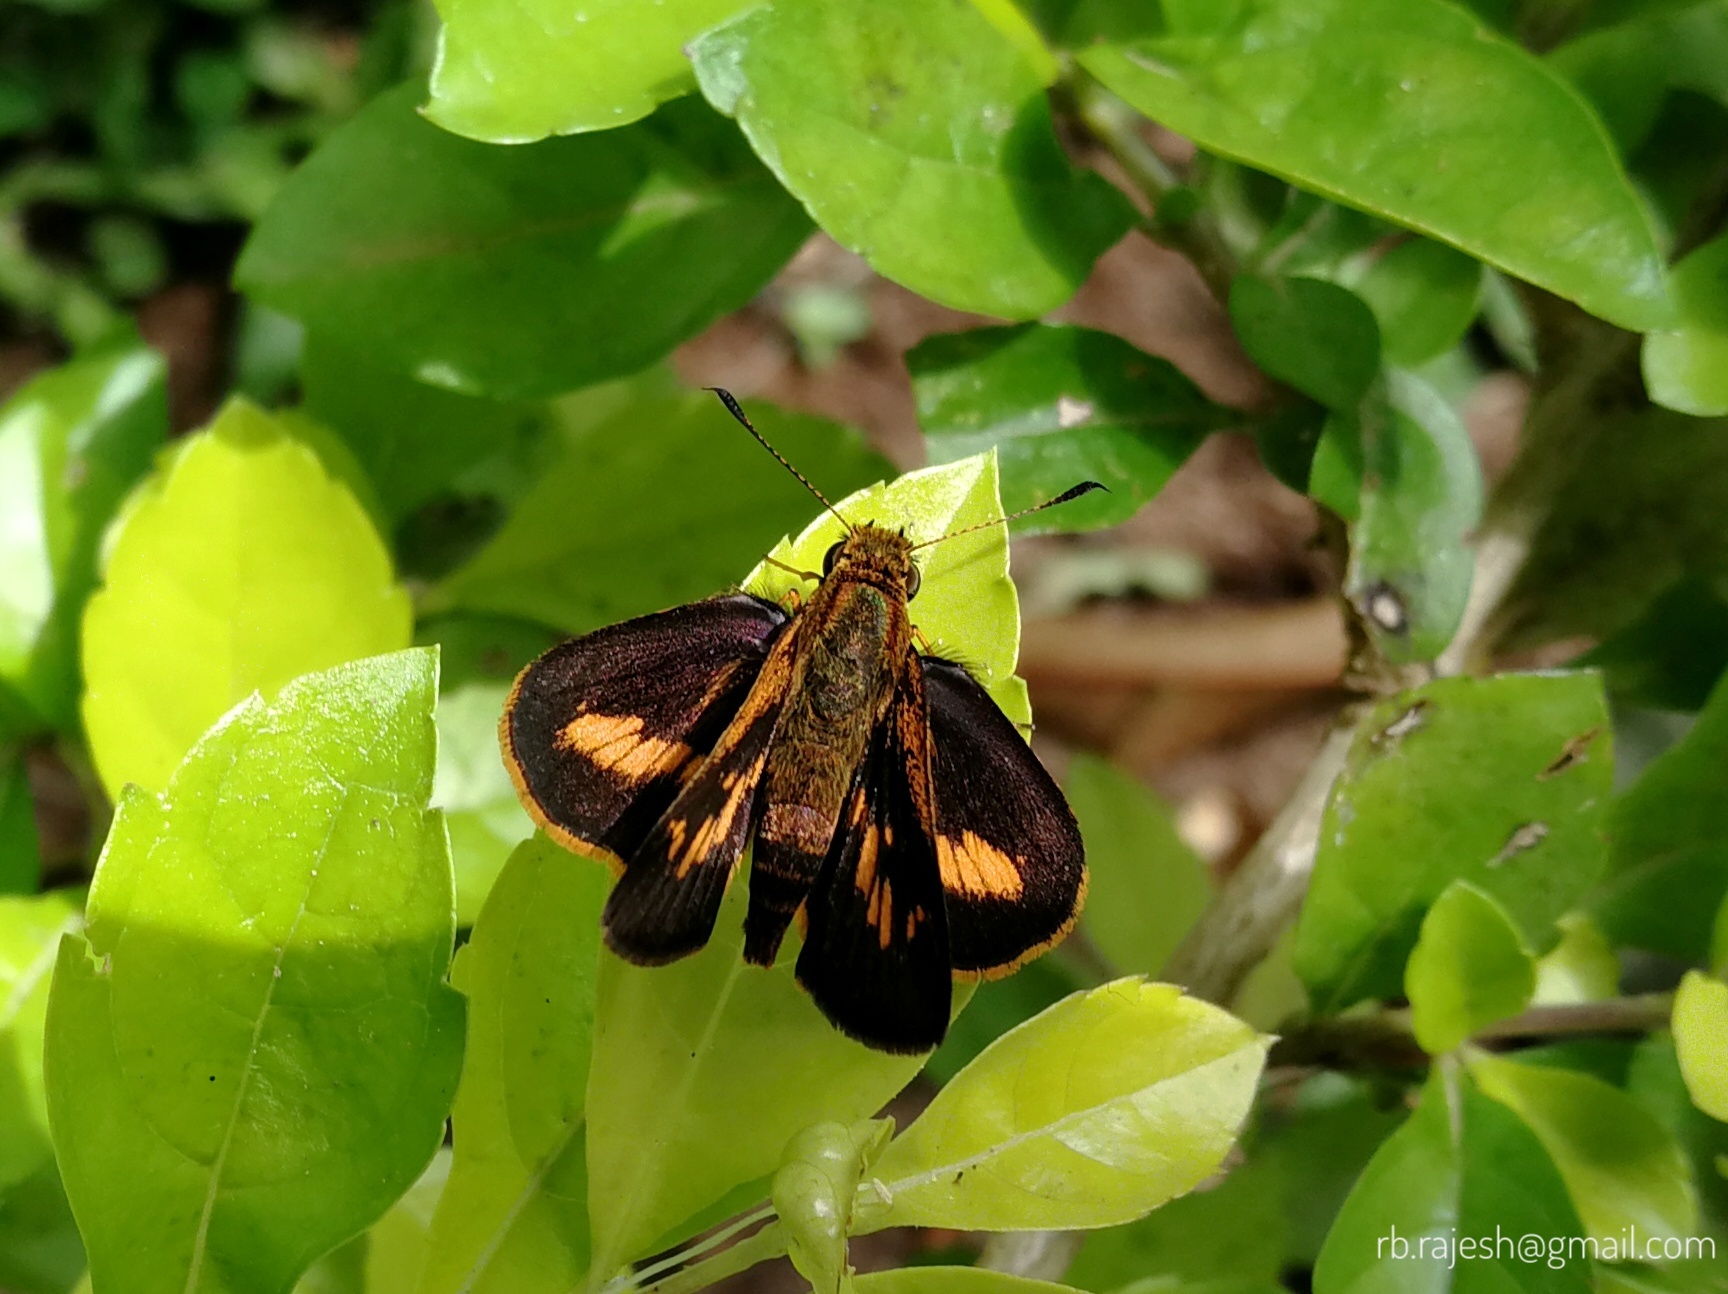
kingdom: Animalia
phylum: Arthropoda
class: Insecta
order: Lepidoptera
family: Hesperiidae
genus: Oriens
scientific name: Oriens concinna
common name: Sahyadri dartlet
